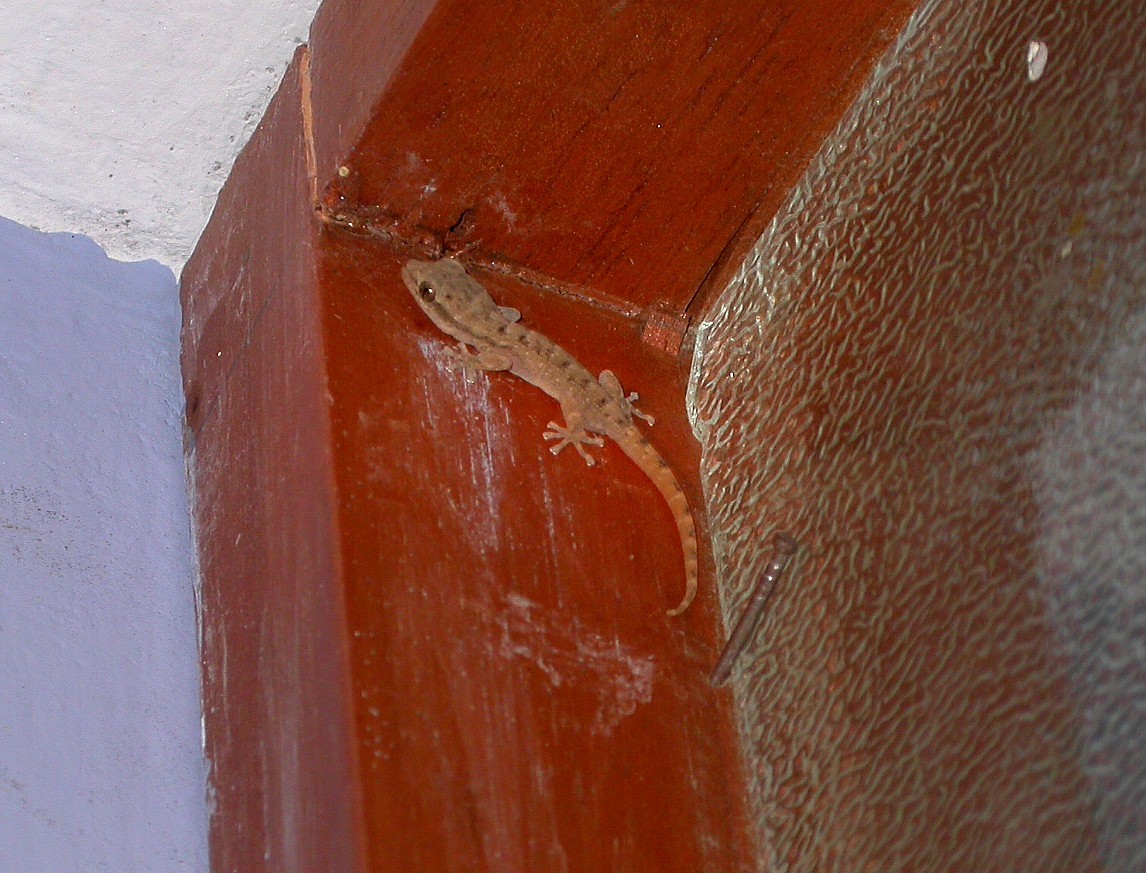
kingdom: Animalia
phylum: Chordata
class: Squamata
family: Phyllodactylidae
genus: Phyllodactylus
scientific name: Phyllodactylus reissii
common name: Peters' leaf-toed gecko
